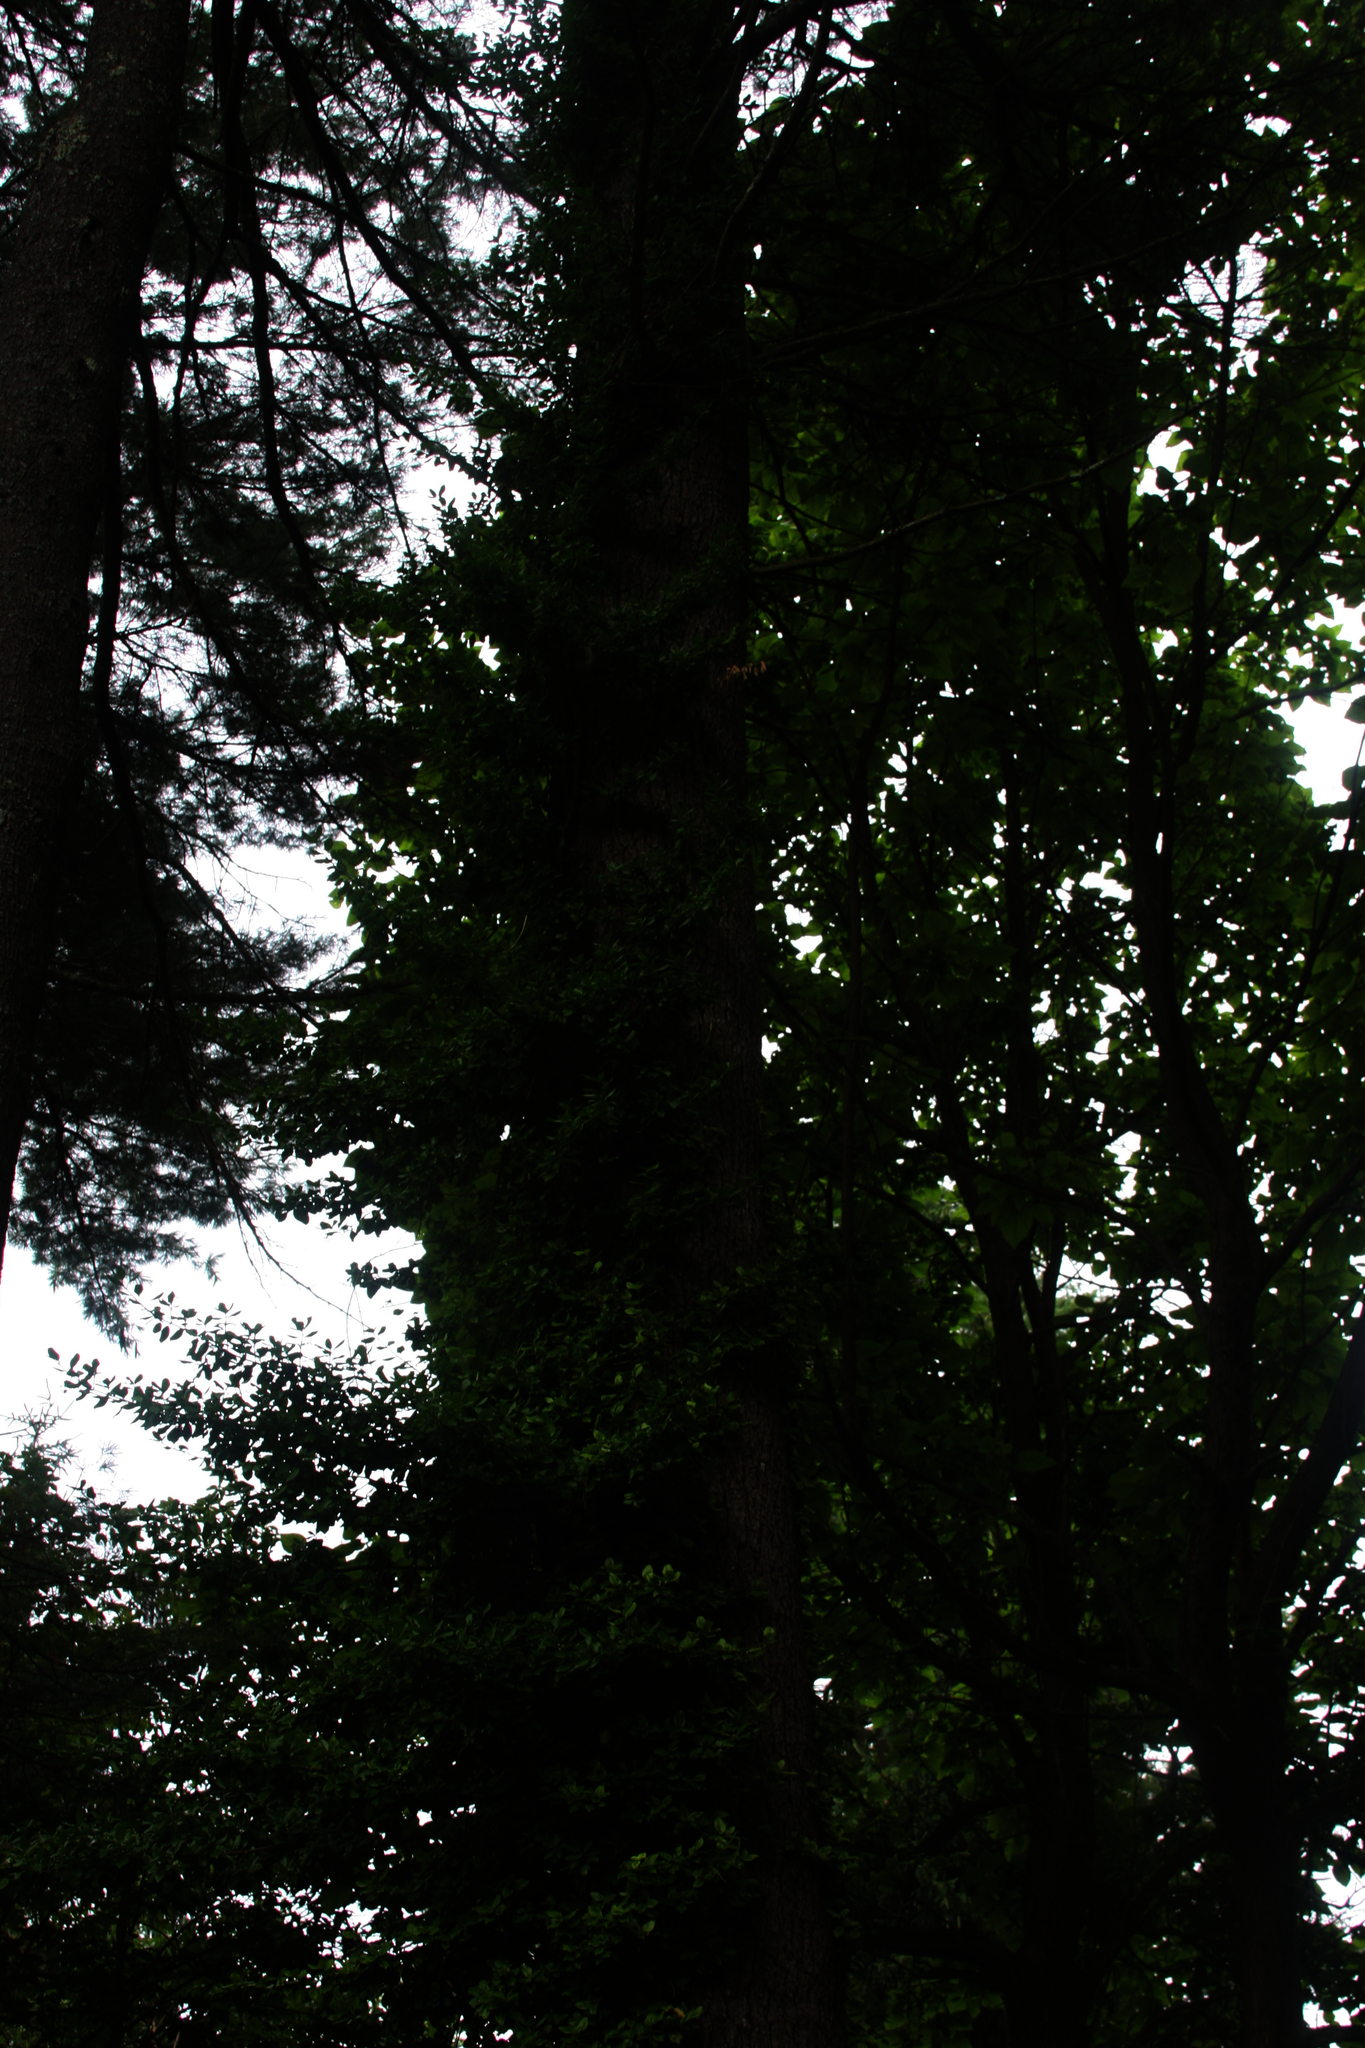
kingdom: Plantae
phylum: Tracheophyta
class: Pinopsida
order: Pinales
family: Pinaceae
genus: Pinus
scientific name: Pinus strobus
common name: Weymouth pine
